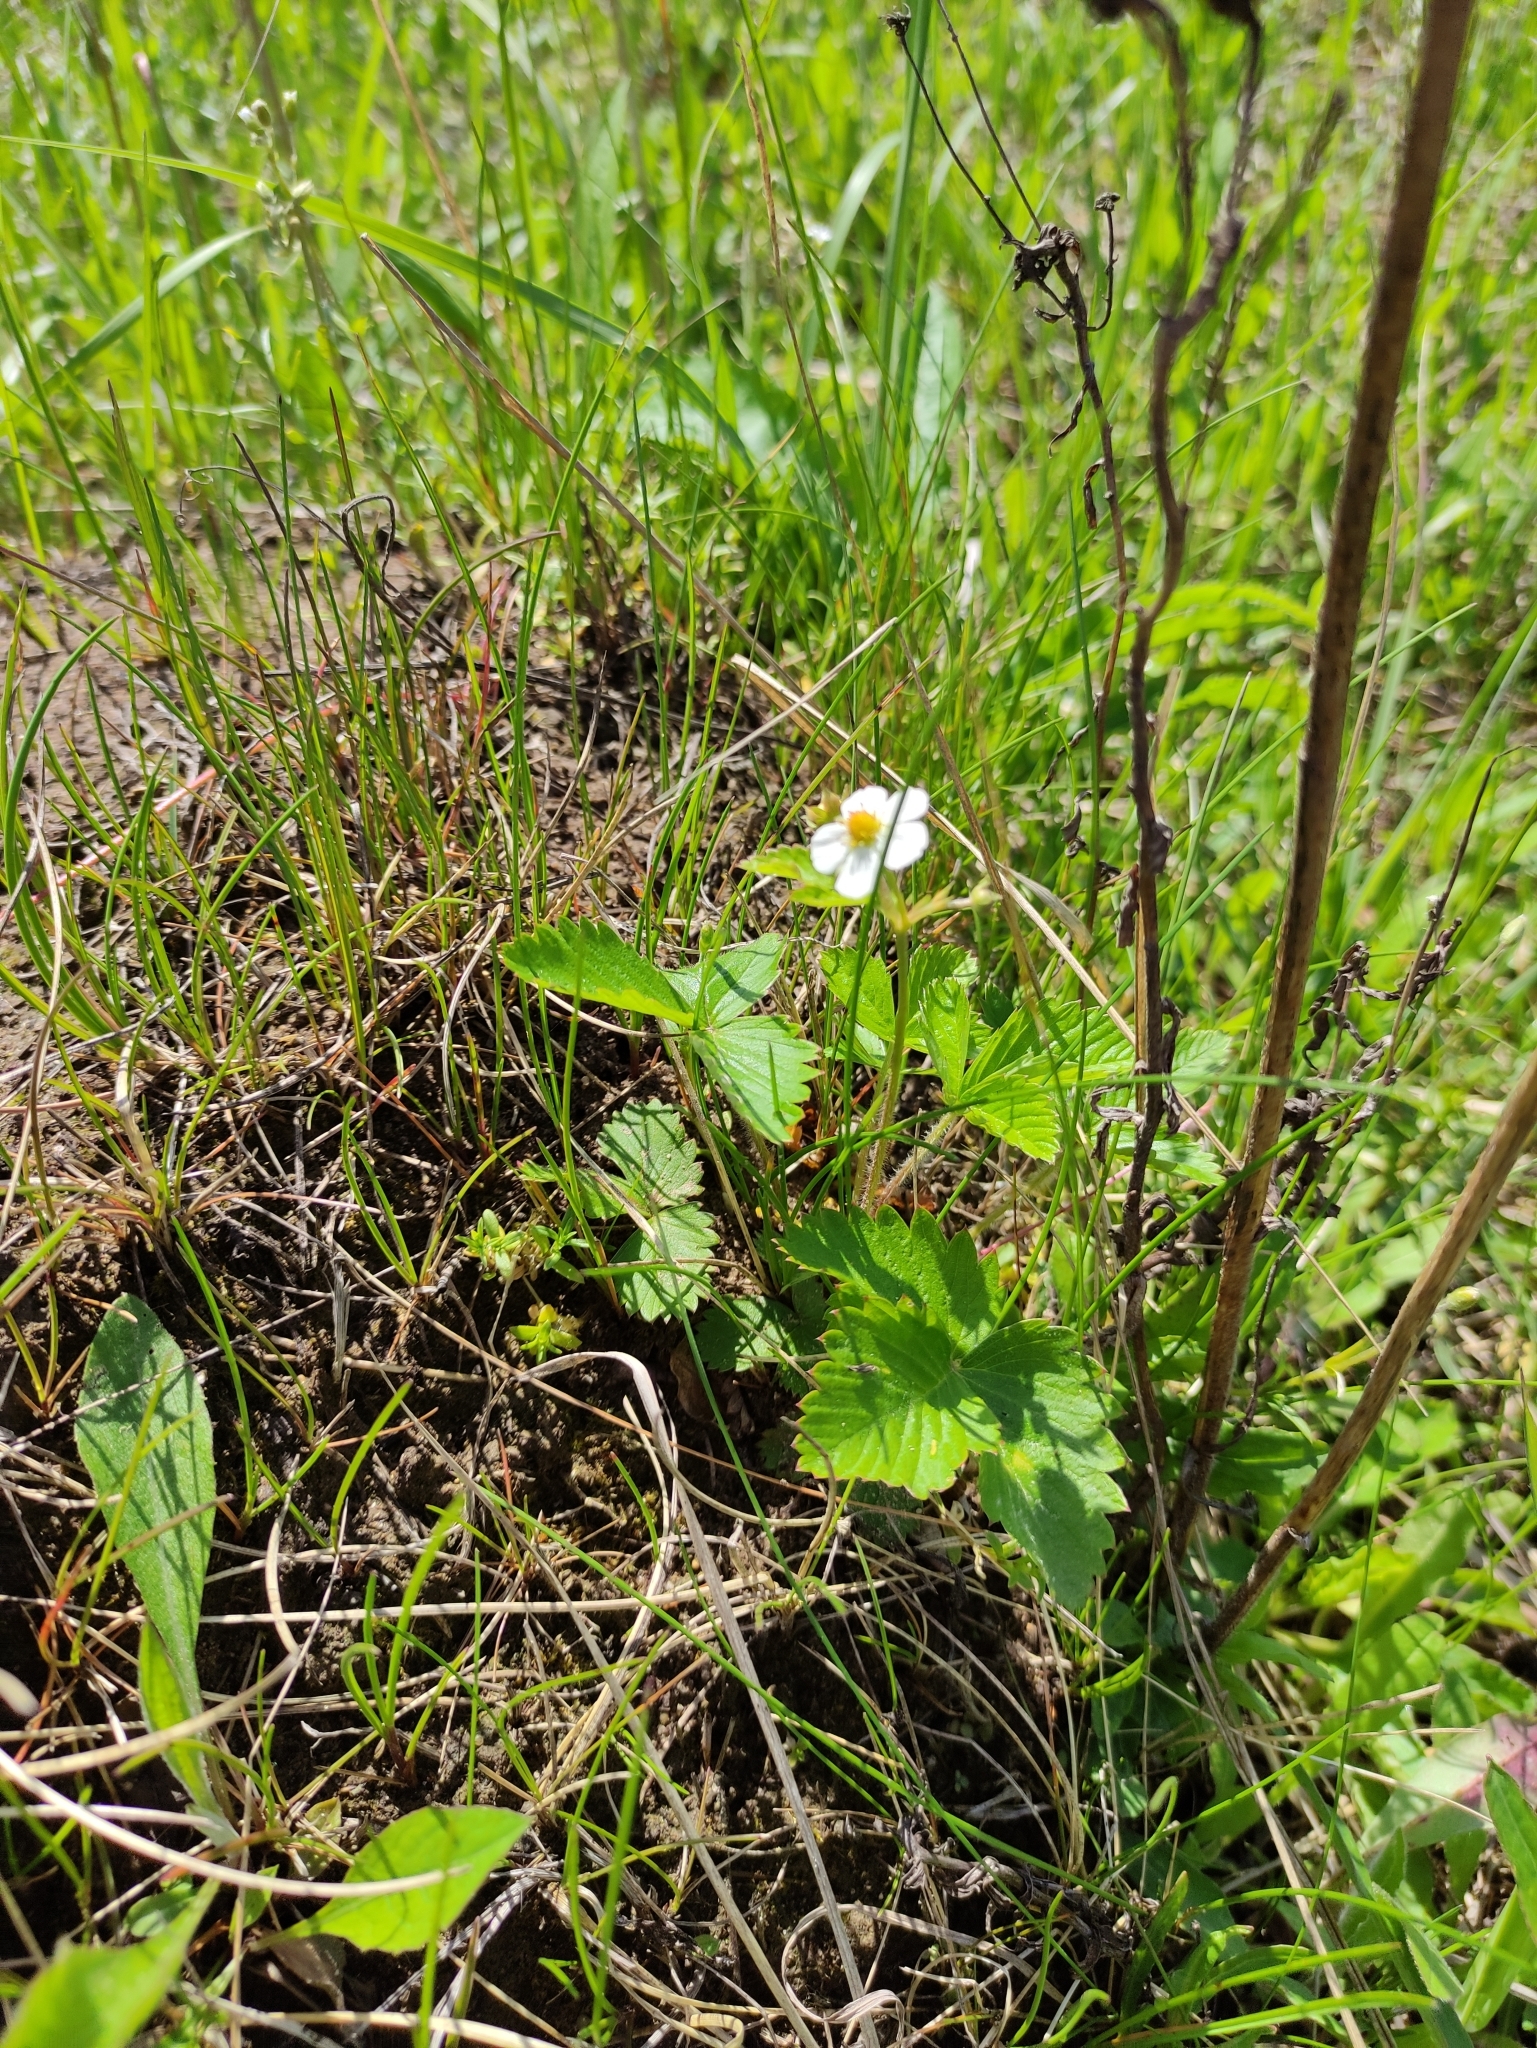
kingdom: Plantae
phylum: Tracheophyta
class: Magnoliopsida
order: Rosales
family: Rosaceae
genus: Fragaria
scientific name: Fragaria vesca
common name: Wild strawberry
